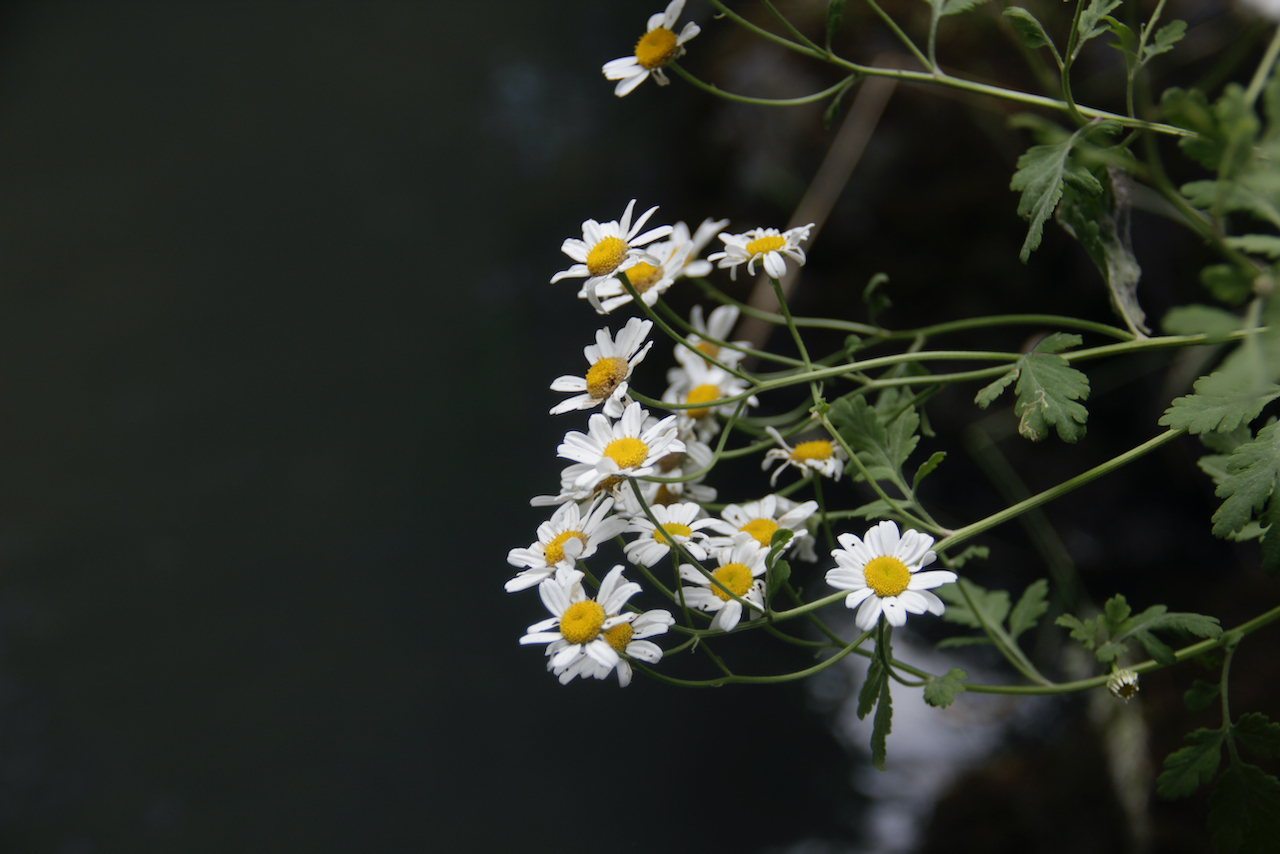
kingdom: Plantae
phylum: Tracheophyta
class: Magnoliopsida
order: Asterales
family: Asteraceae
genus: Tanacetum
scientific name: Tanacetum parthenium
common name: Feverfew
